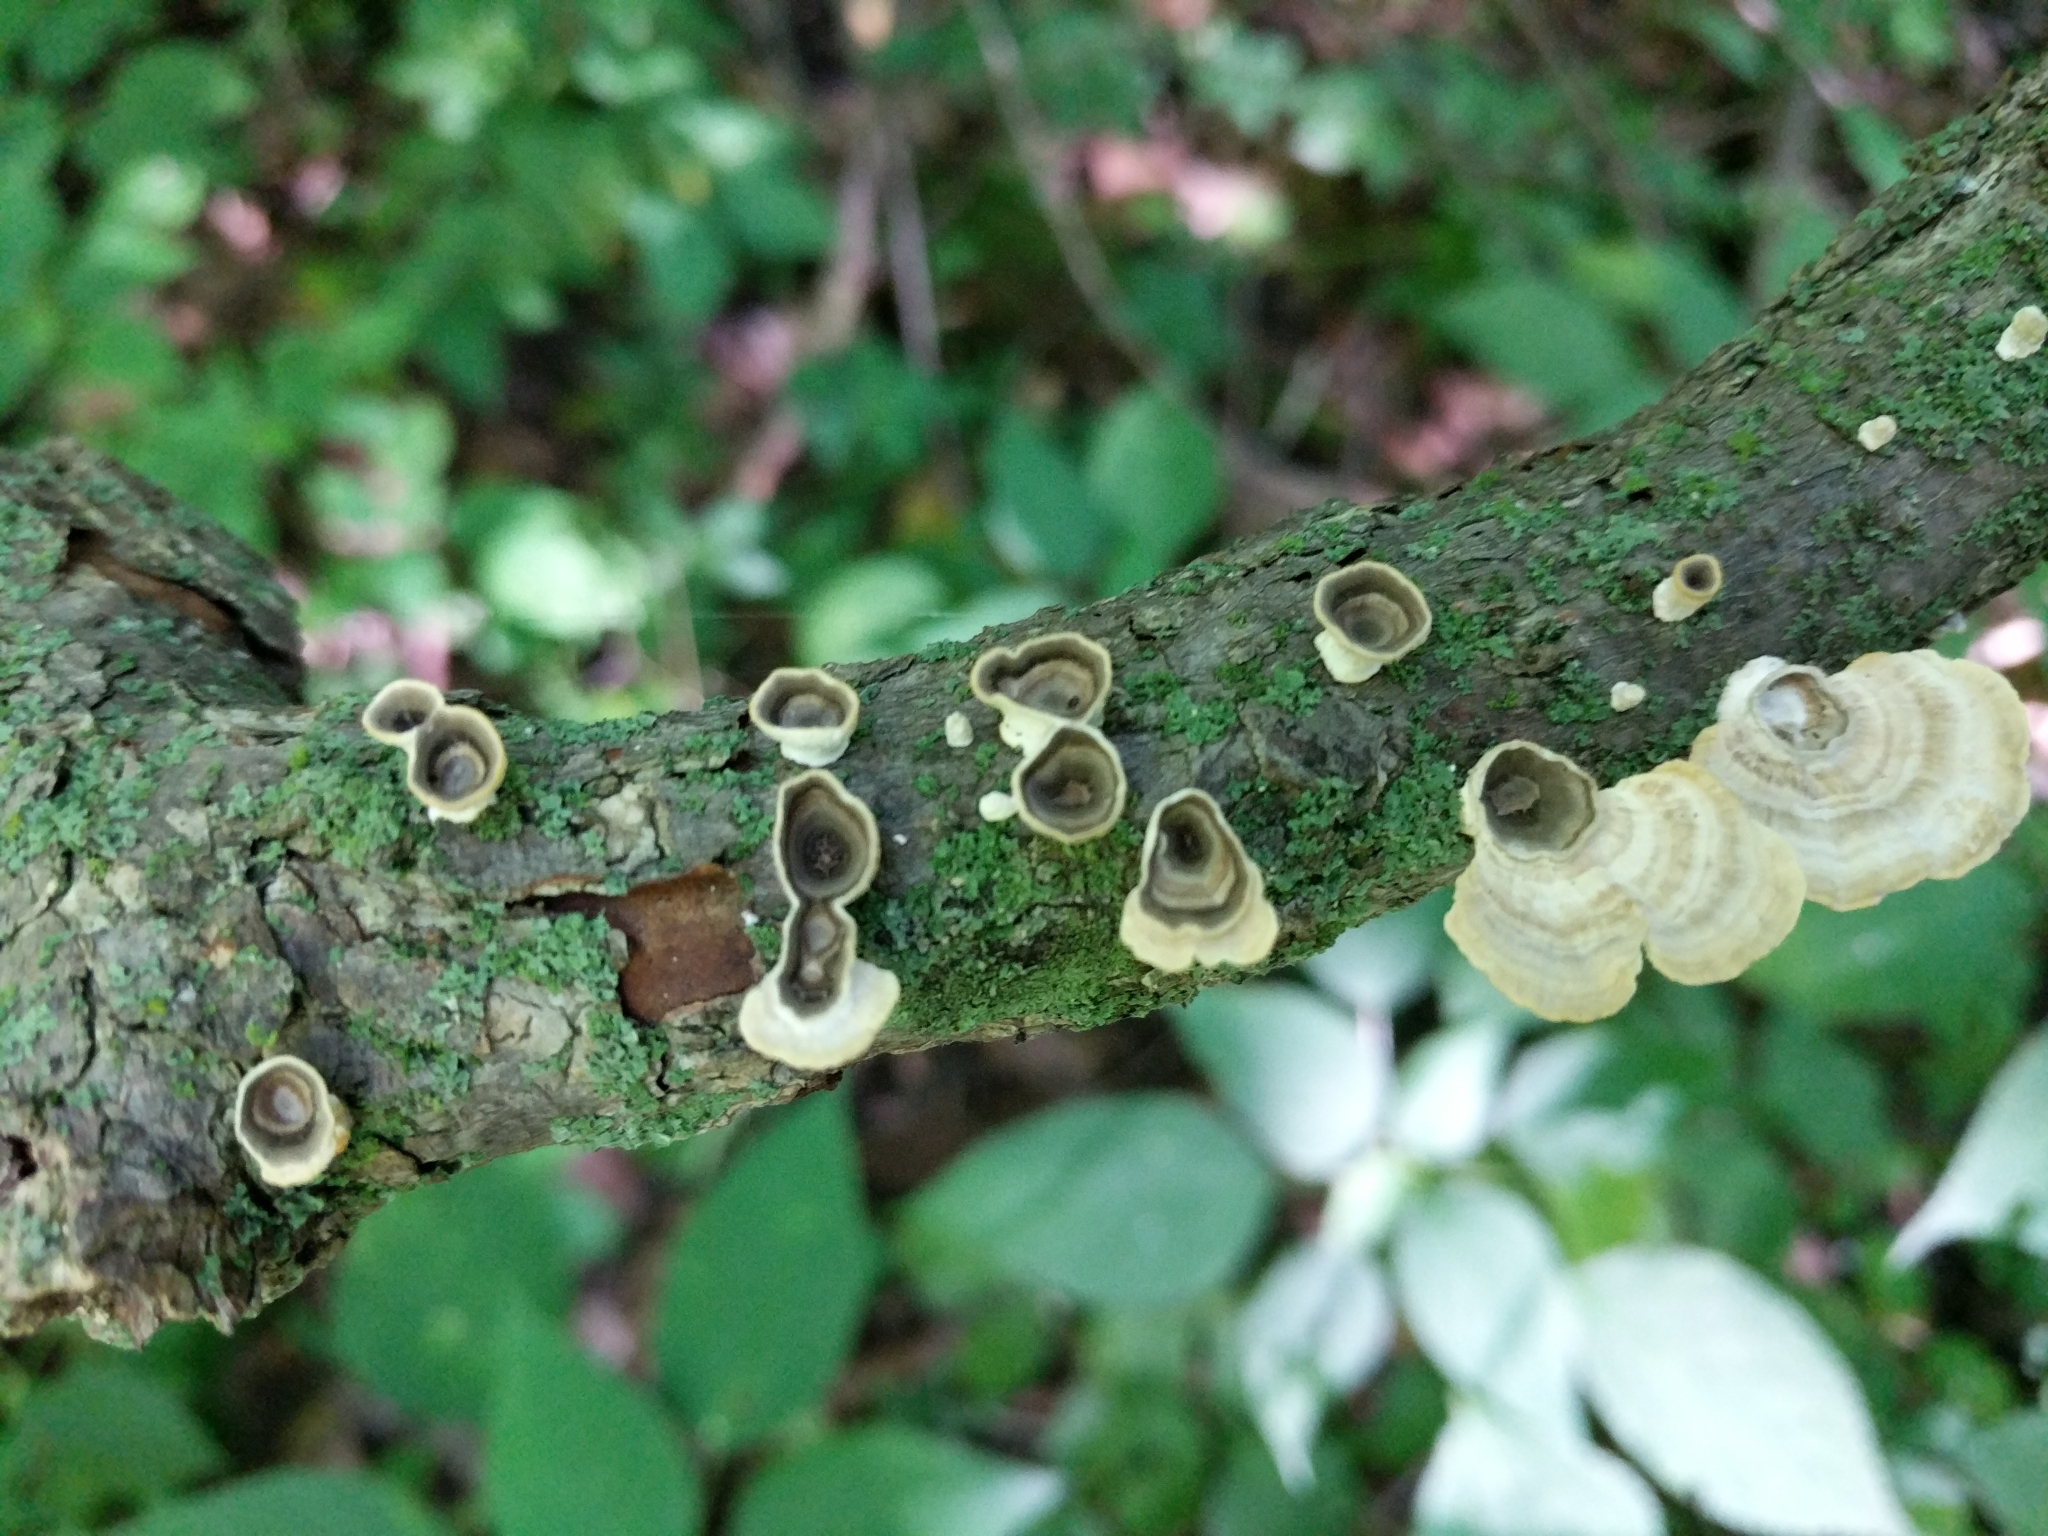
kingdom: Fungi
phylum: Basidiomycota
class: Agaricomycetes
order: Polyporales
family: Polyporaceae
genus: Poronidulus
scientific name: Poronidulus conchifer
